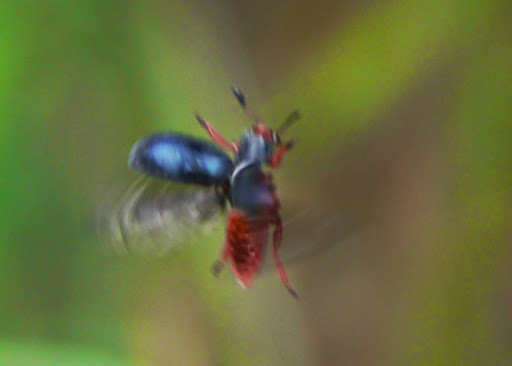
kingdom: Animalia
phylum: Arthropoda
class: Insecta
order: Coleoptera
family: Cleridae
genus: Chariessa
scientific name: Chariessa vestita
